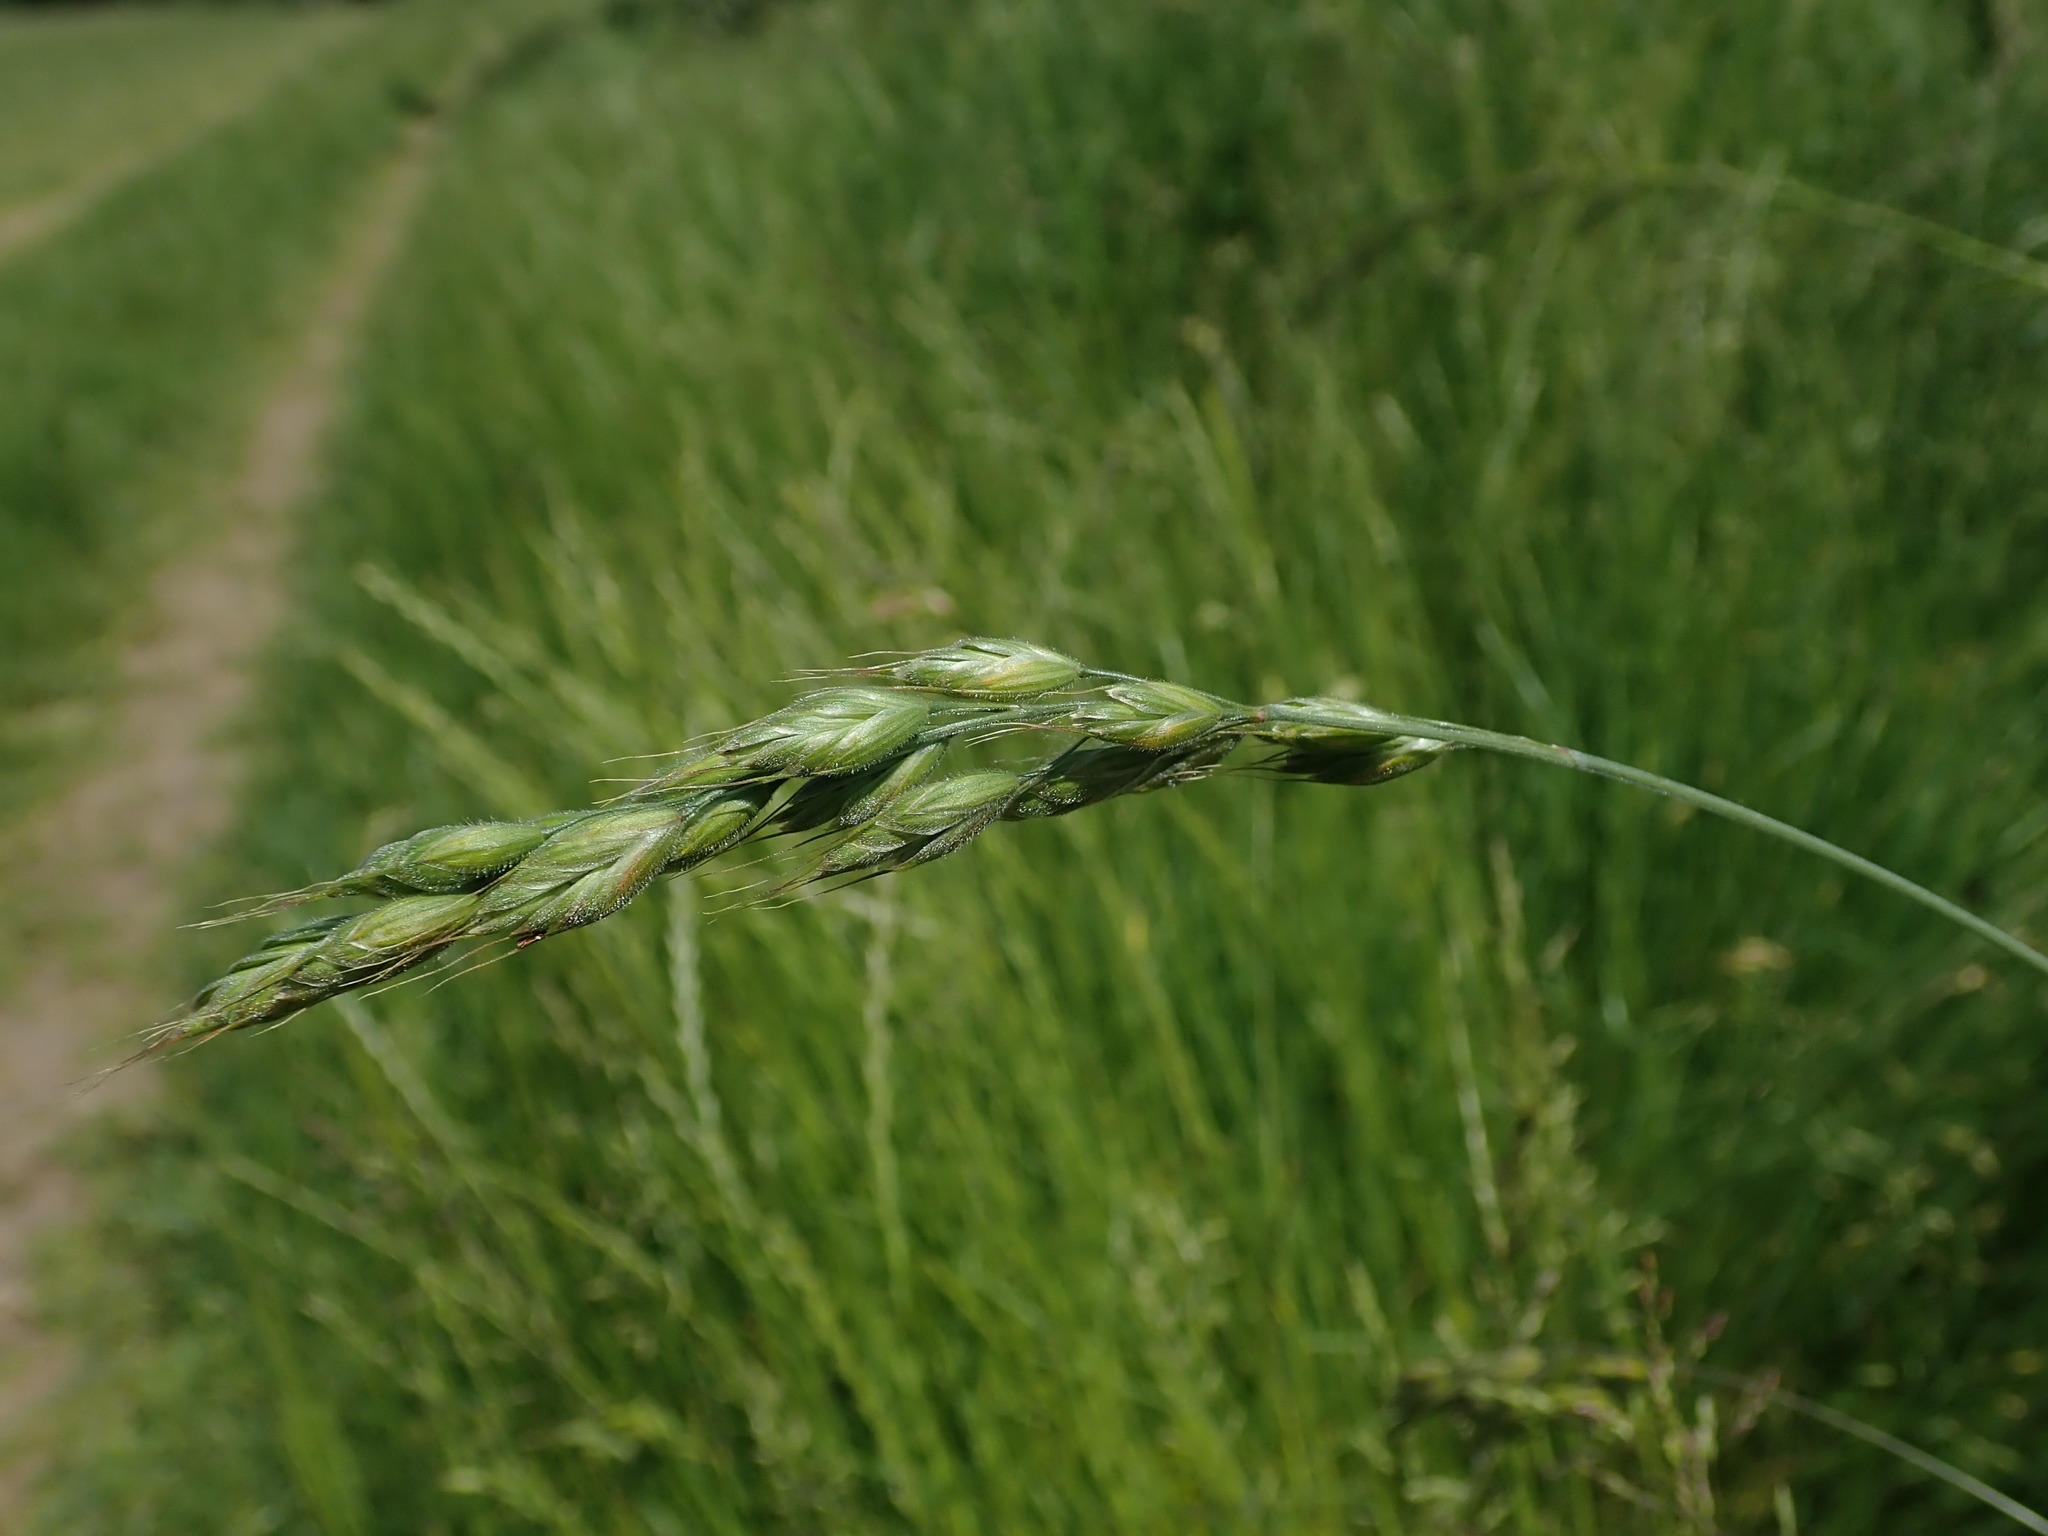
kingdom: Plantae
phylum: Tracheophyta
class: Liliopsida
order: Poales
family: Poaceae
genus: Bromus
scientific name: Bromus hordeaceus
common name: Soft brome
